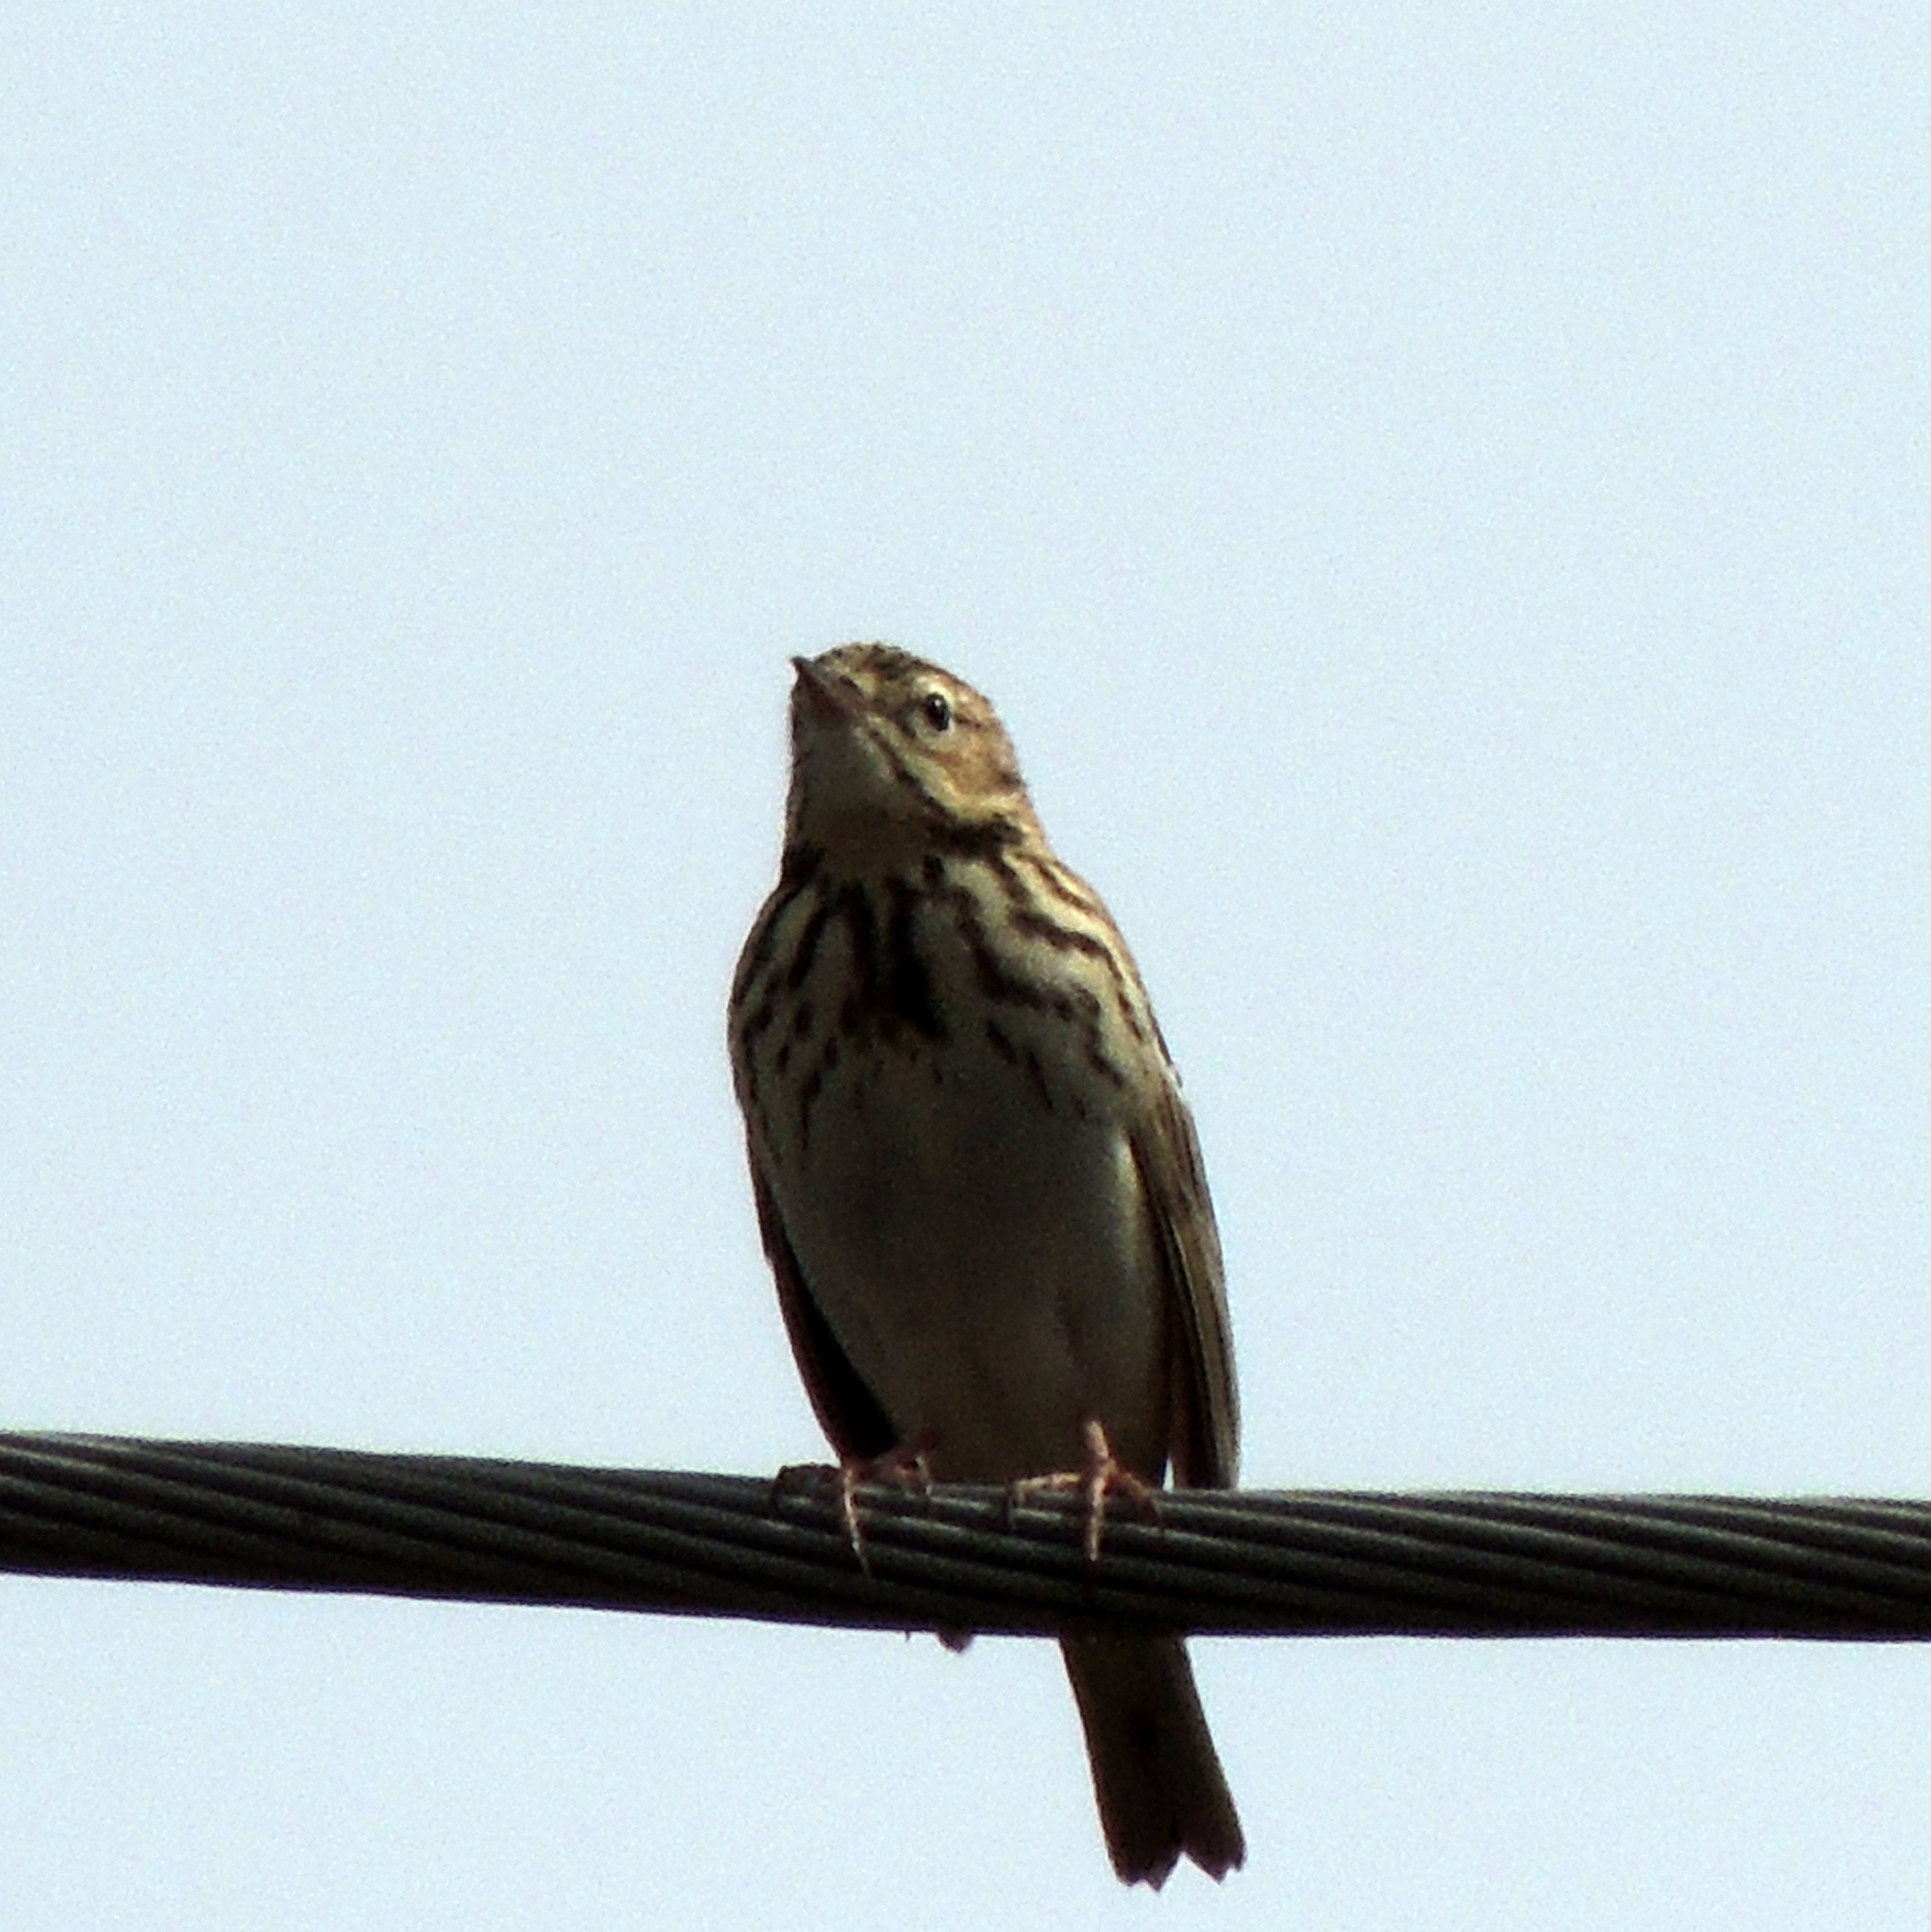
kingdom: Animalia
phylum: Chordata
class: Aves
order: Passeriformes
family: Motacillidae
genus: Anthus
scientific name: Anthus trivialis
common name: Tree pipit
